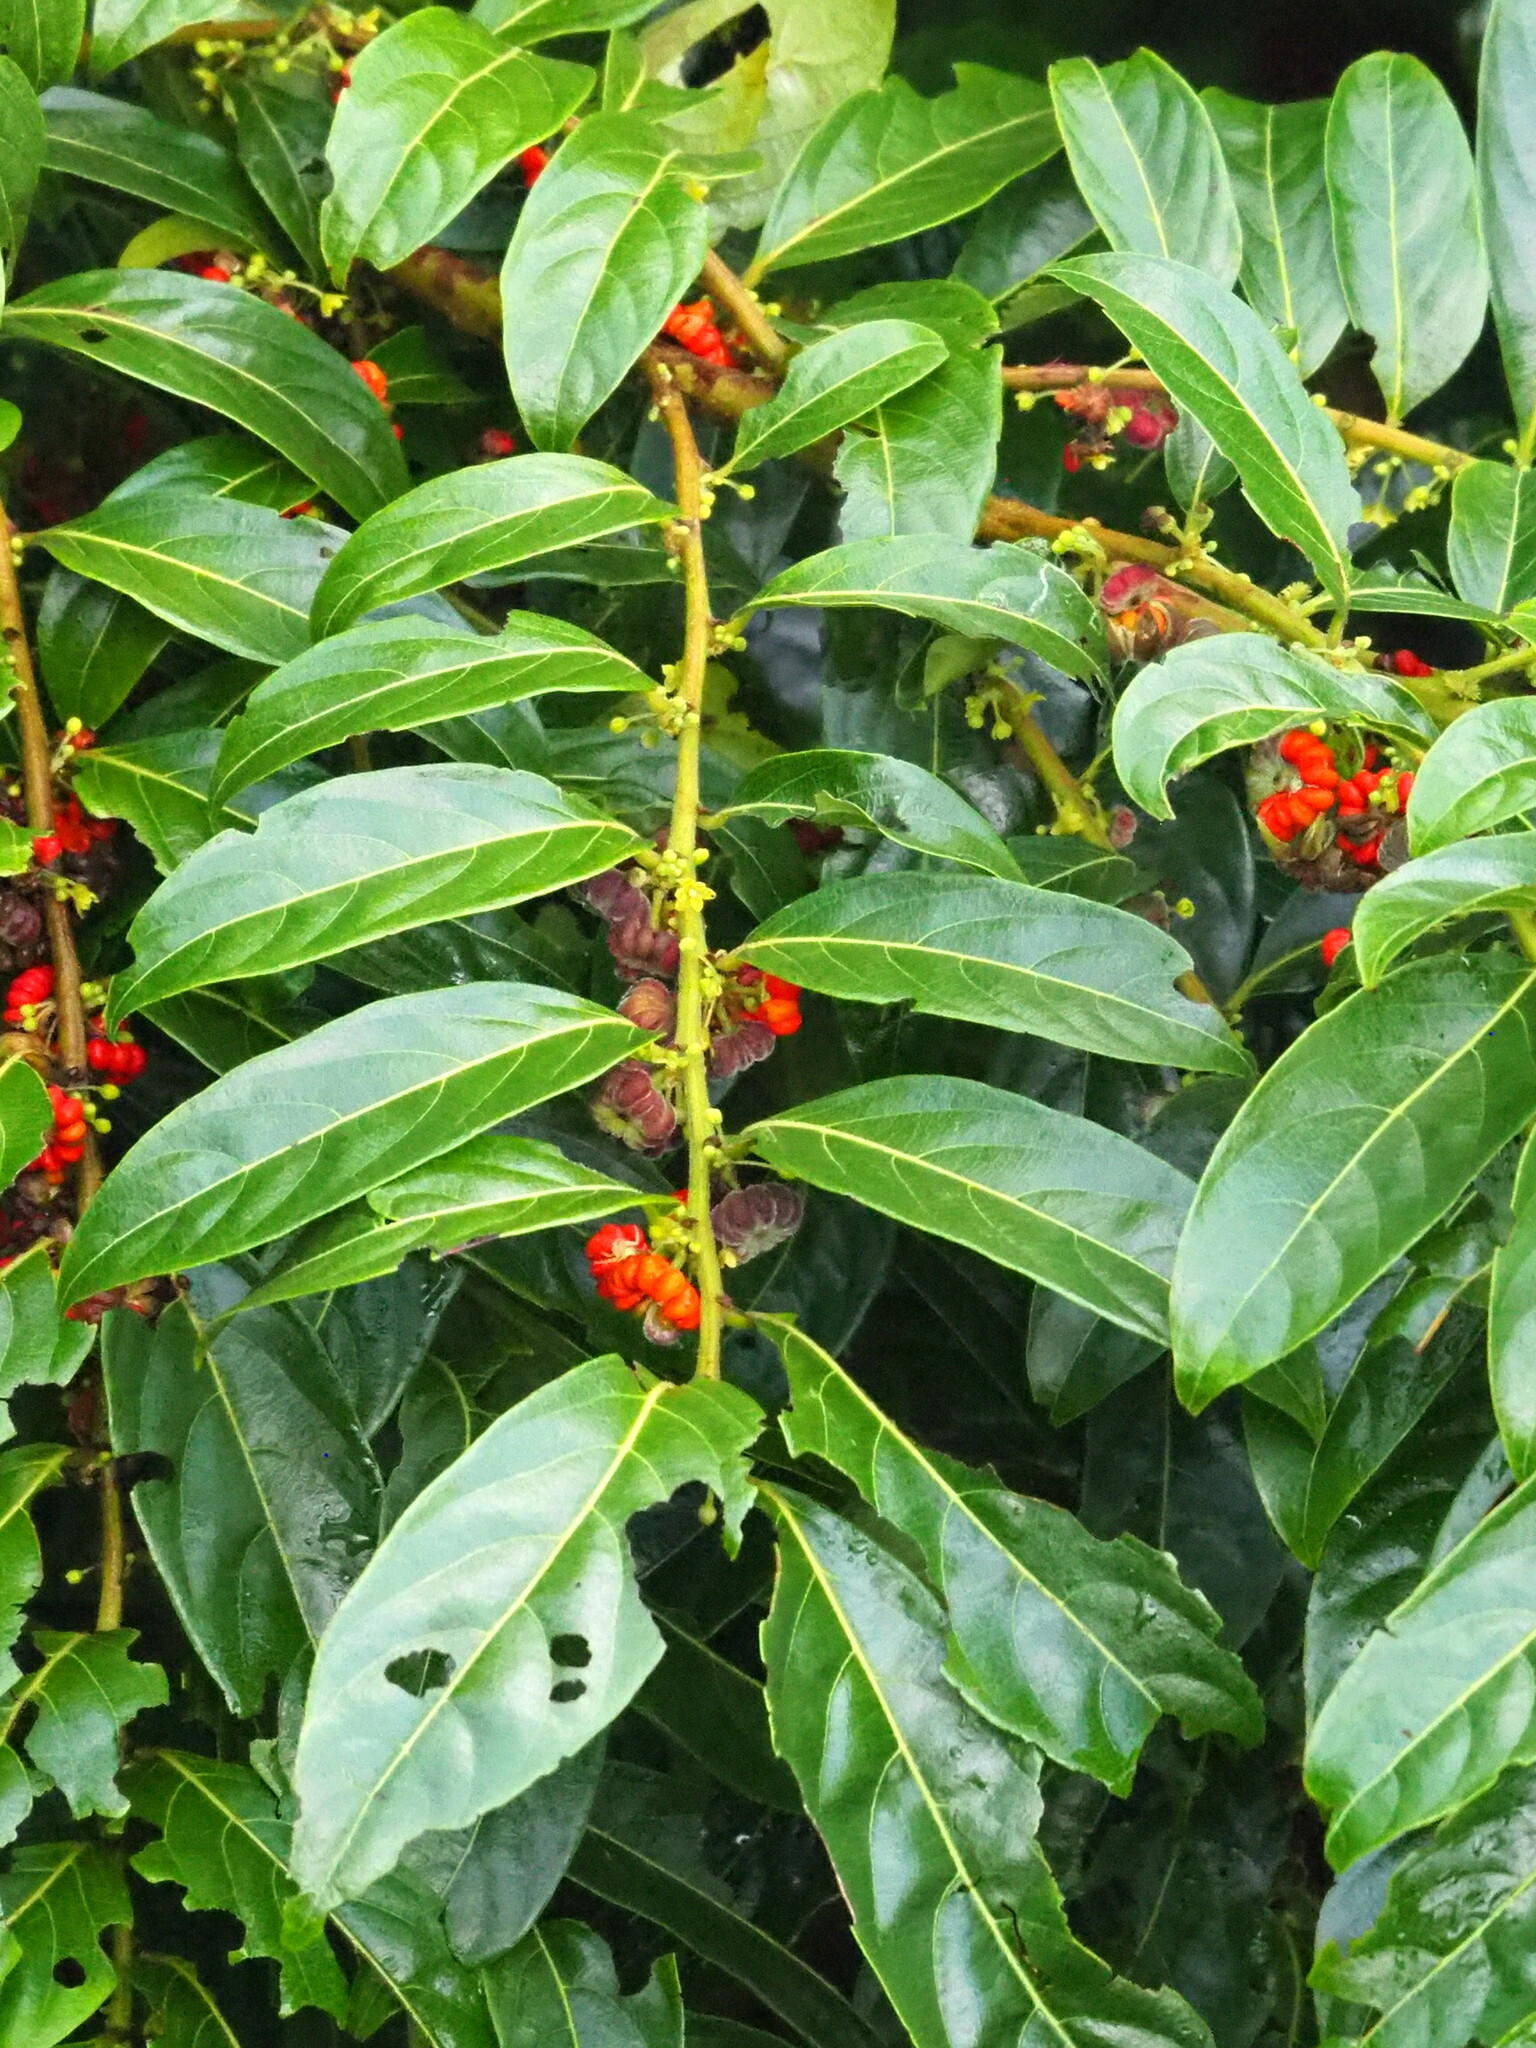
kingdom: Plantae
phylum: Tracheophyta
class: Magnoliopsida
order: Malpighiales
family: Phyllanthaceae
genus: Glochidion
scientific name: Glochidion philippicum
